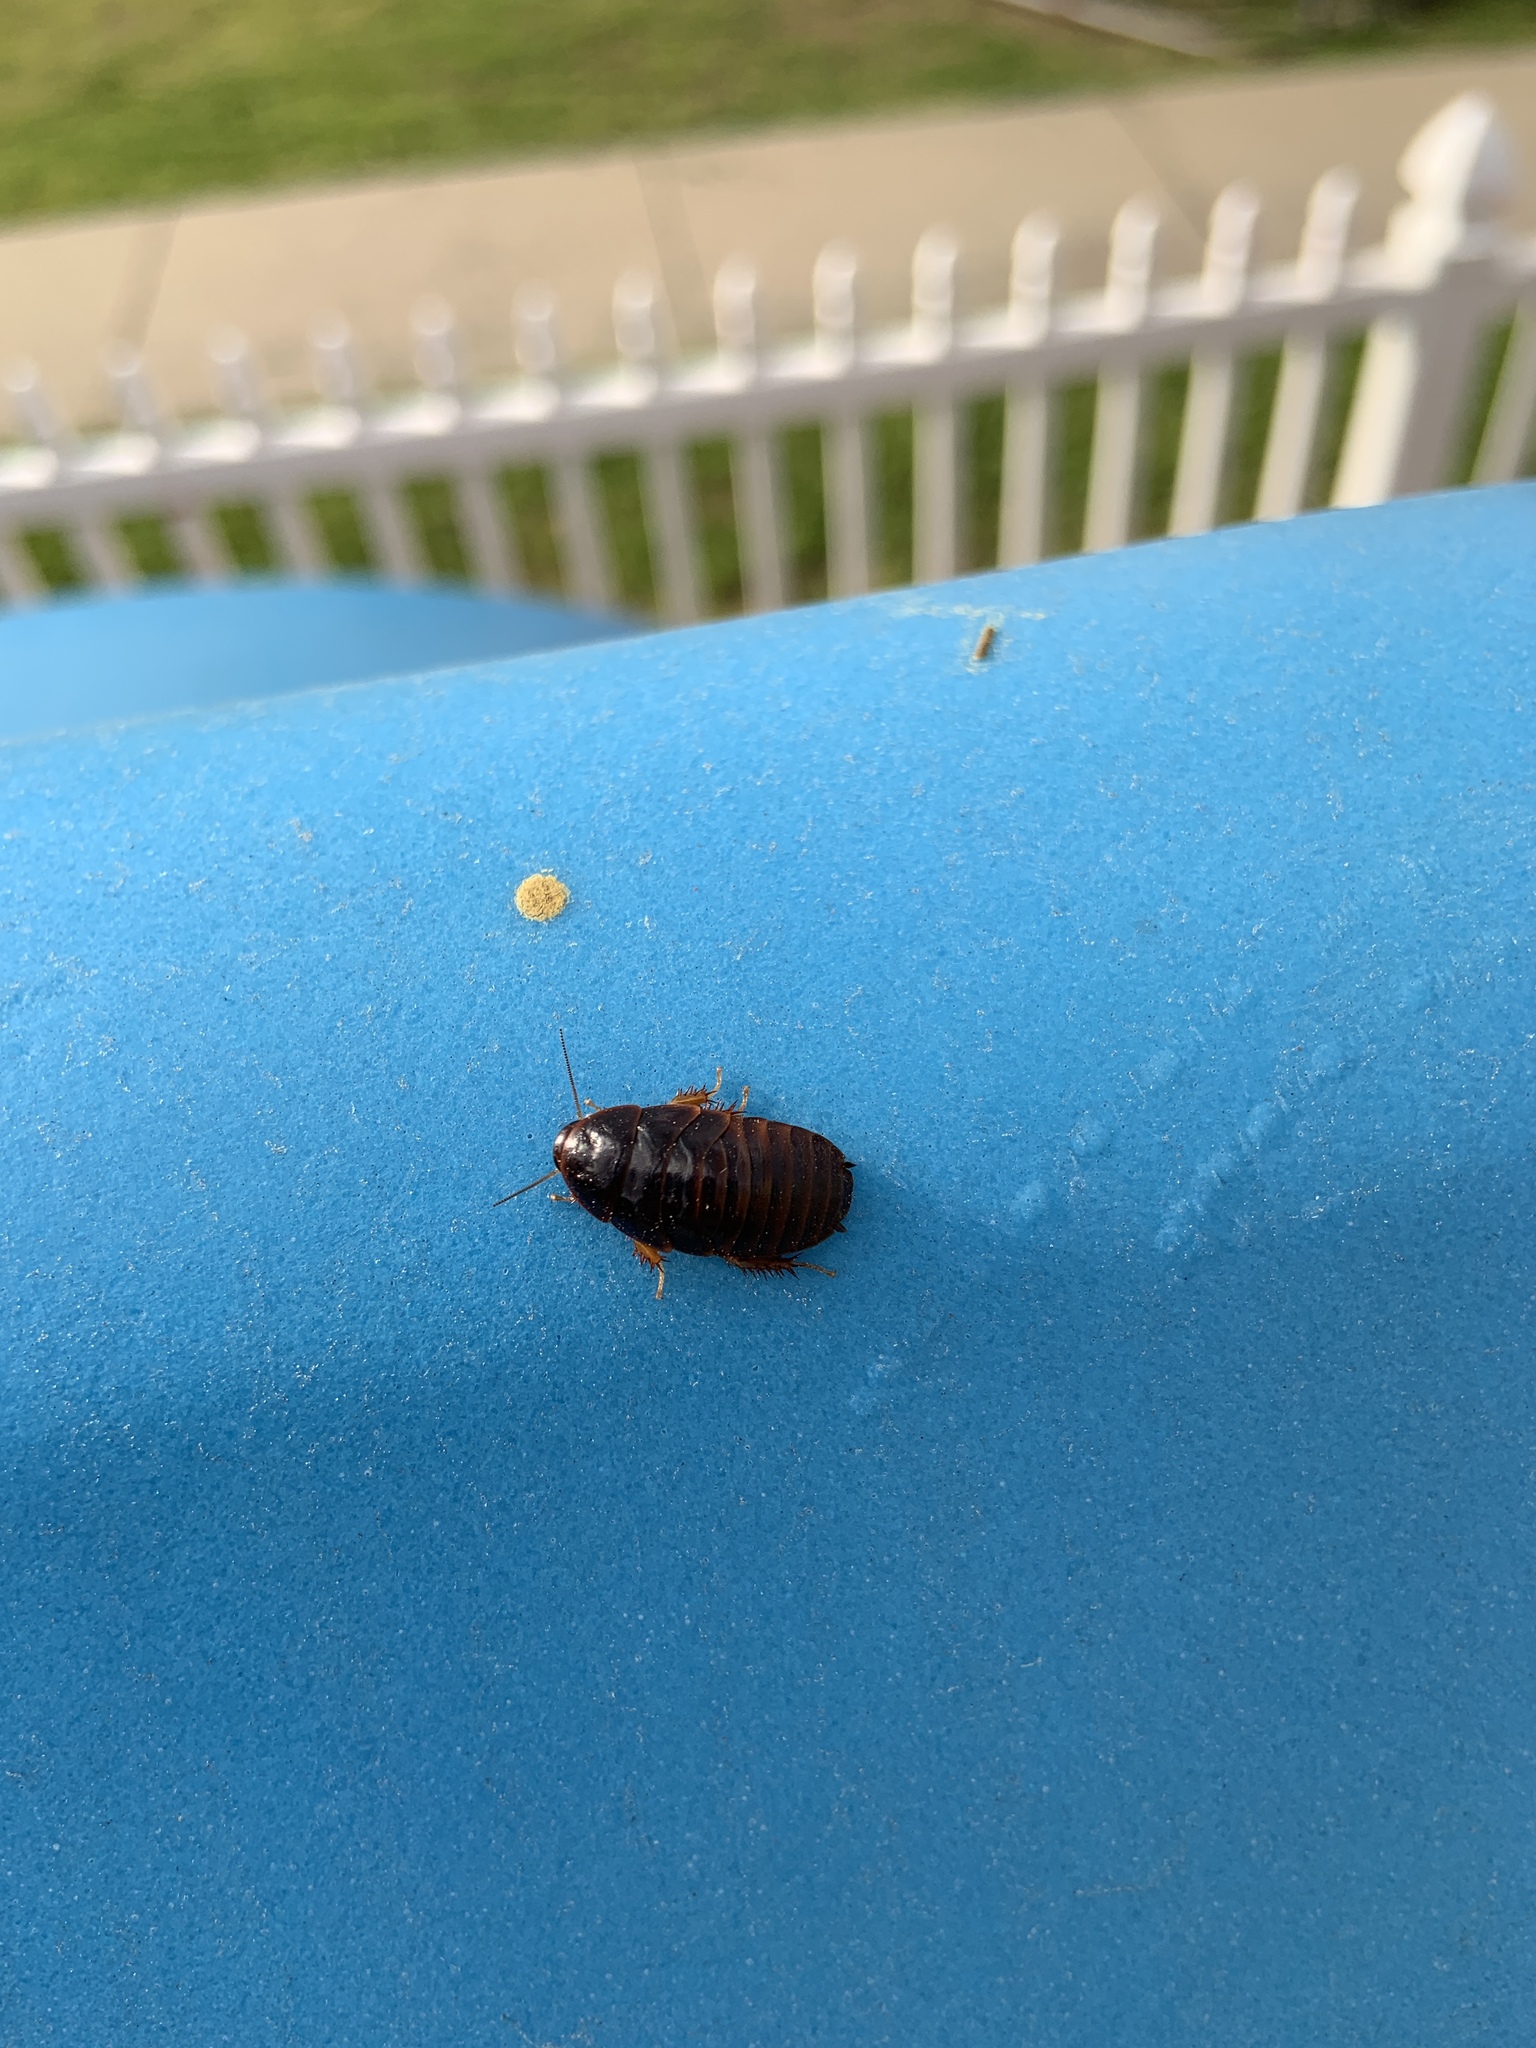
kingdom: Animalia
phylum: Arthropoda
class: Insecta
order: Blattodea
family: Blaberidae
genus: Pycnoscelus
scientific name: Pycnoscelus surinamensis
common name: Surinam cockroach
